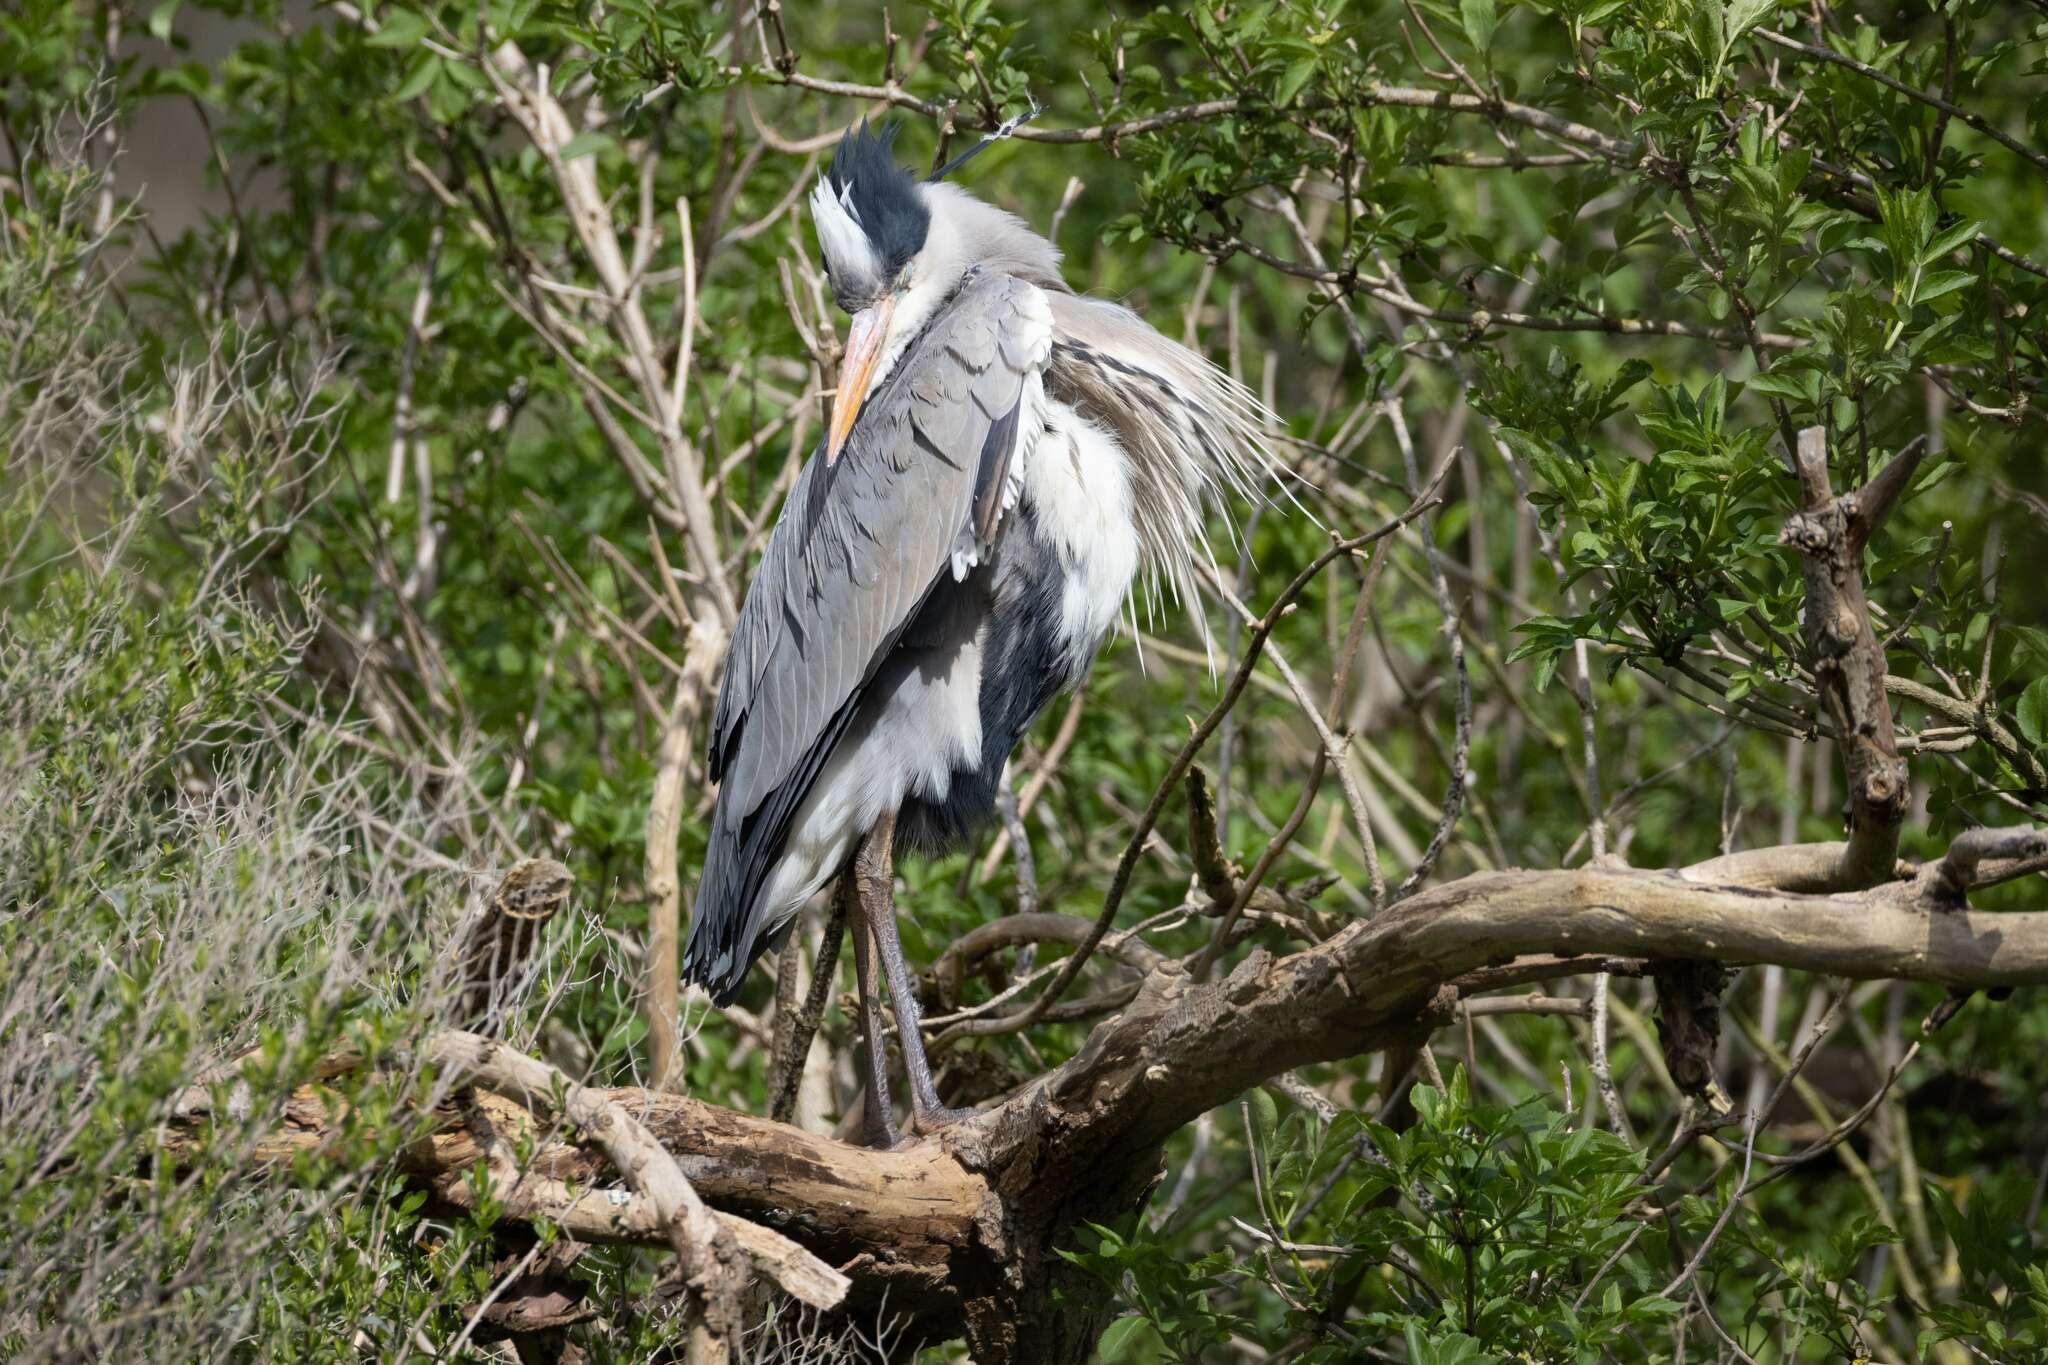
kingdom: Animalia
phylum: Chordata
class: Aves
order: Pelecaniformes
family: Ardeidae
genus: Ardea
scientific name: Ardea cinerea
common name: Grey heron
